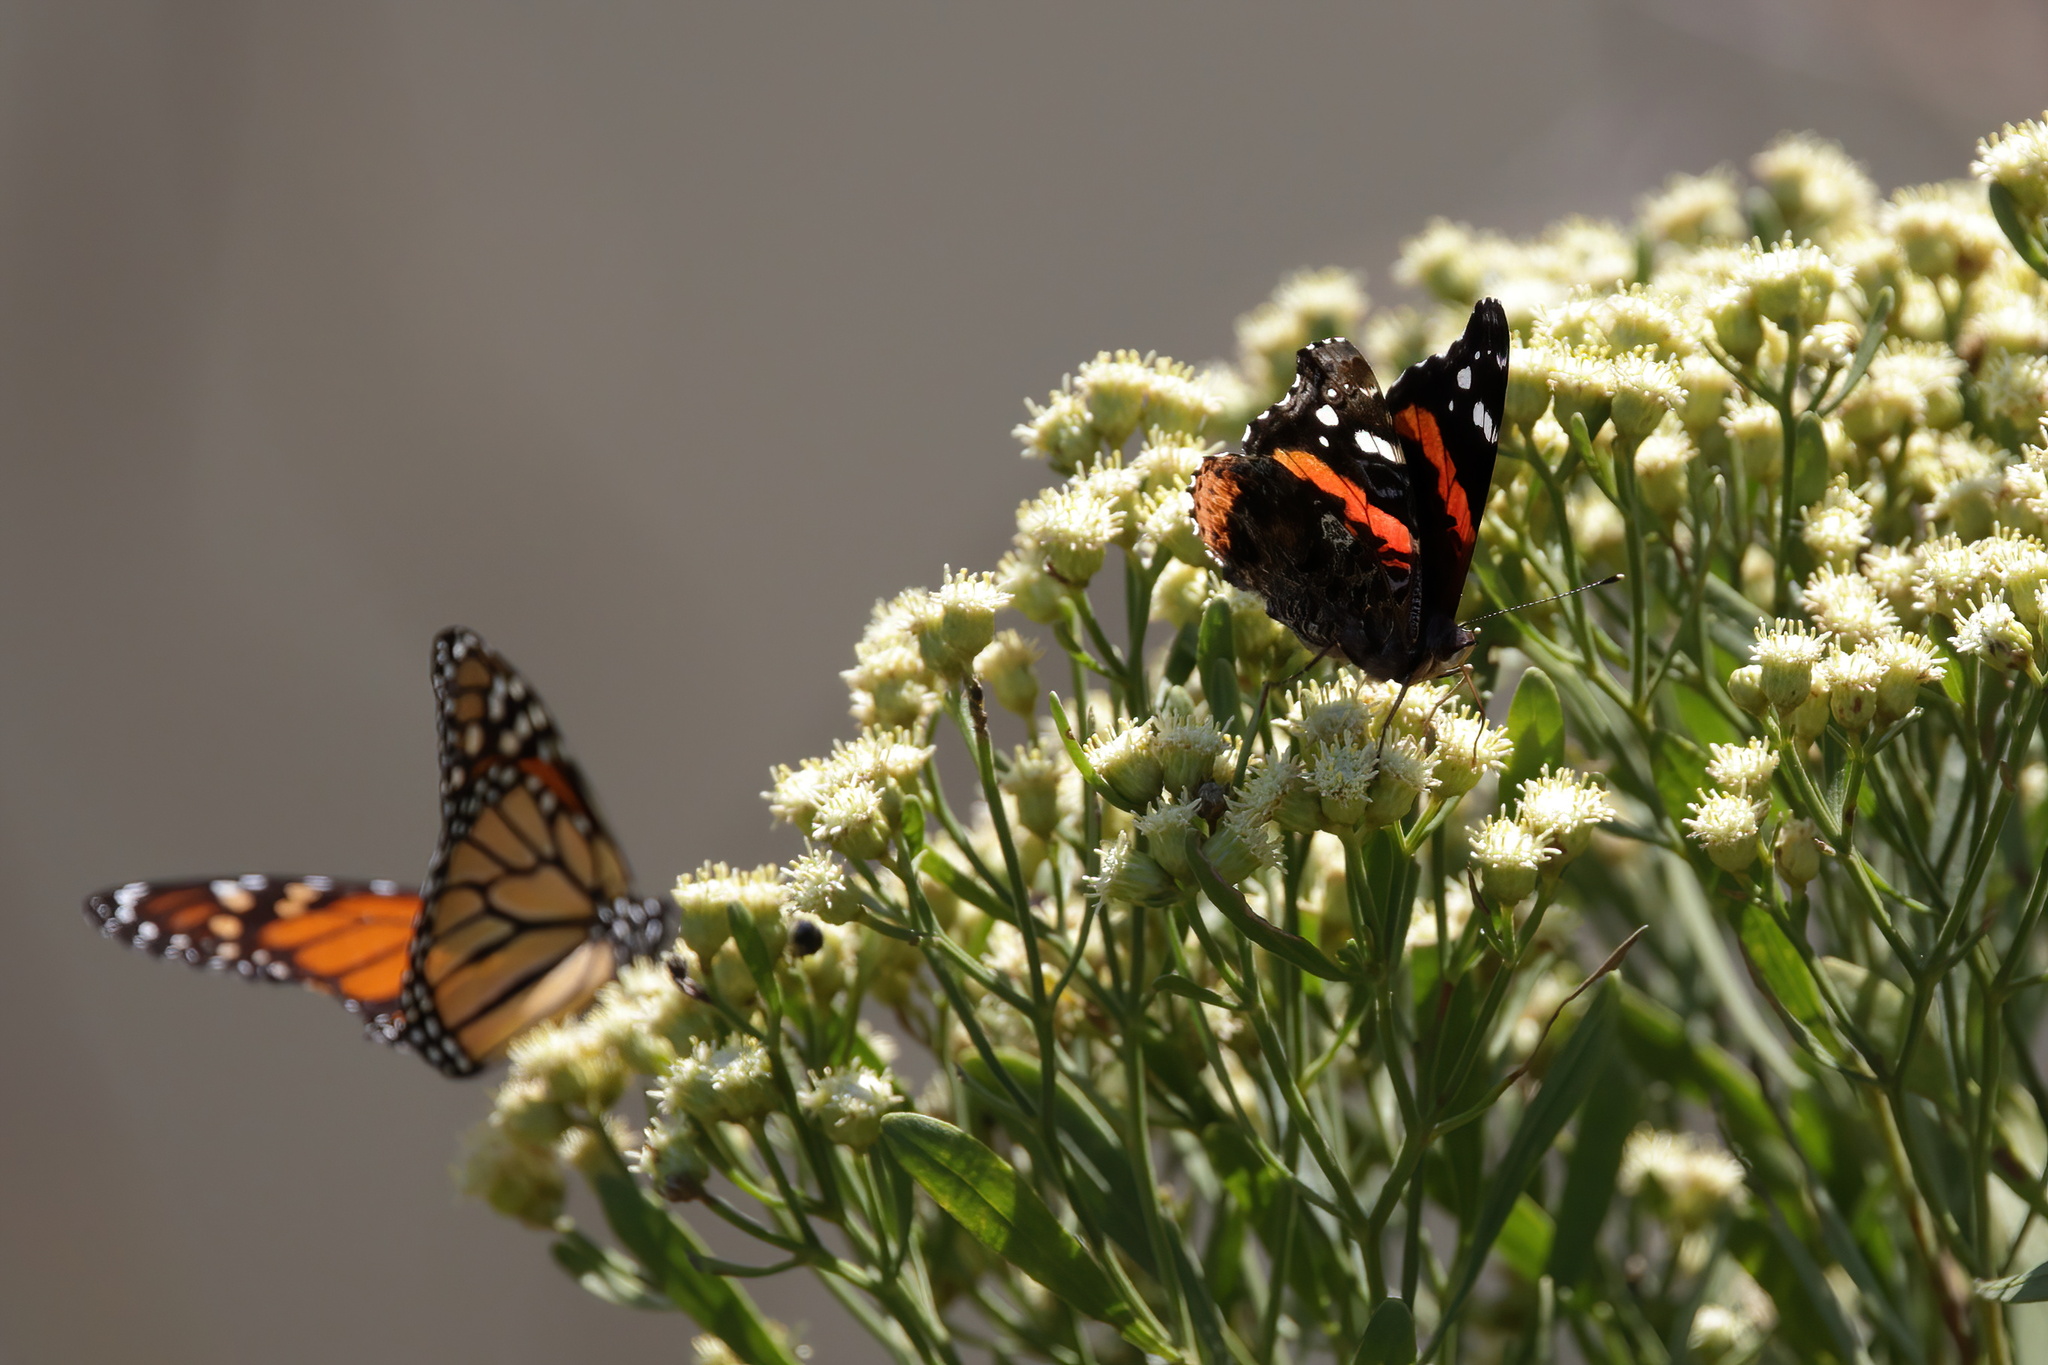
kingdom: Animalia
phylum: Arthropoda
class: Insecta
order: Lepidoptera
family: Nymphalidae
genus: Vanessa
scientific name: Vanessa atalanta
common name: Red admiral
